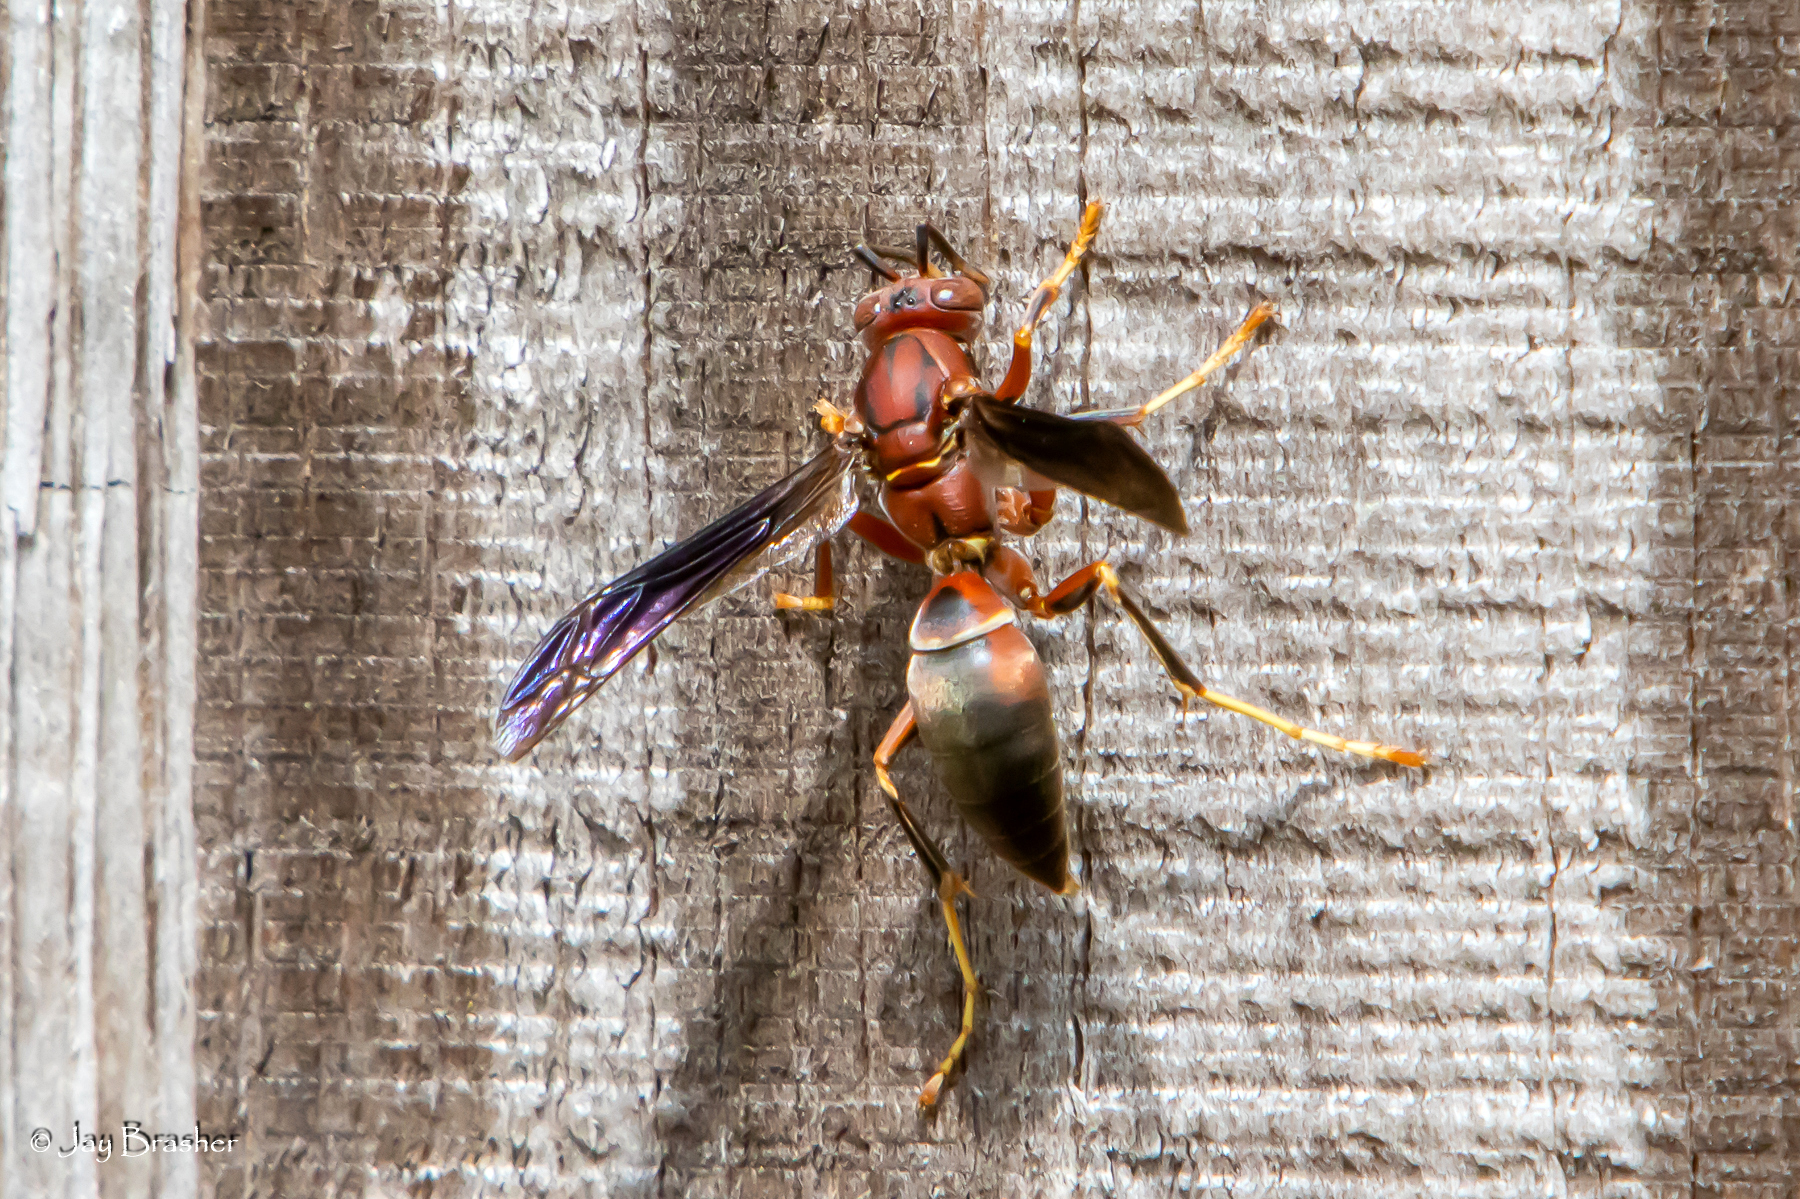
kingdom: Animalia
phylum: Arthropoda
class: Insecta
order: Hymenoptera
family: Eumenidae
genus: Polistes
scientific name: Polistes metricus
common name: Metric paper wasp
